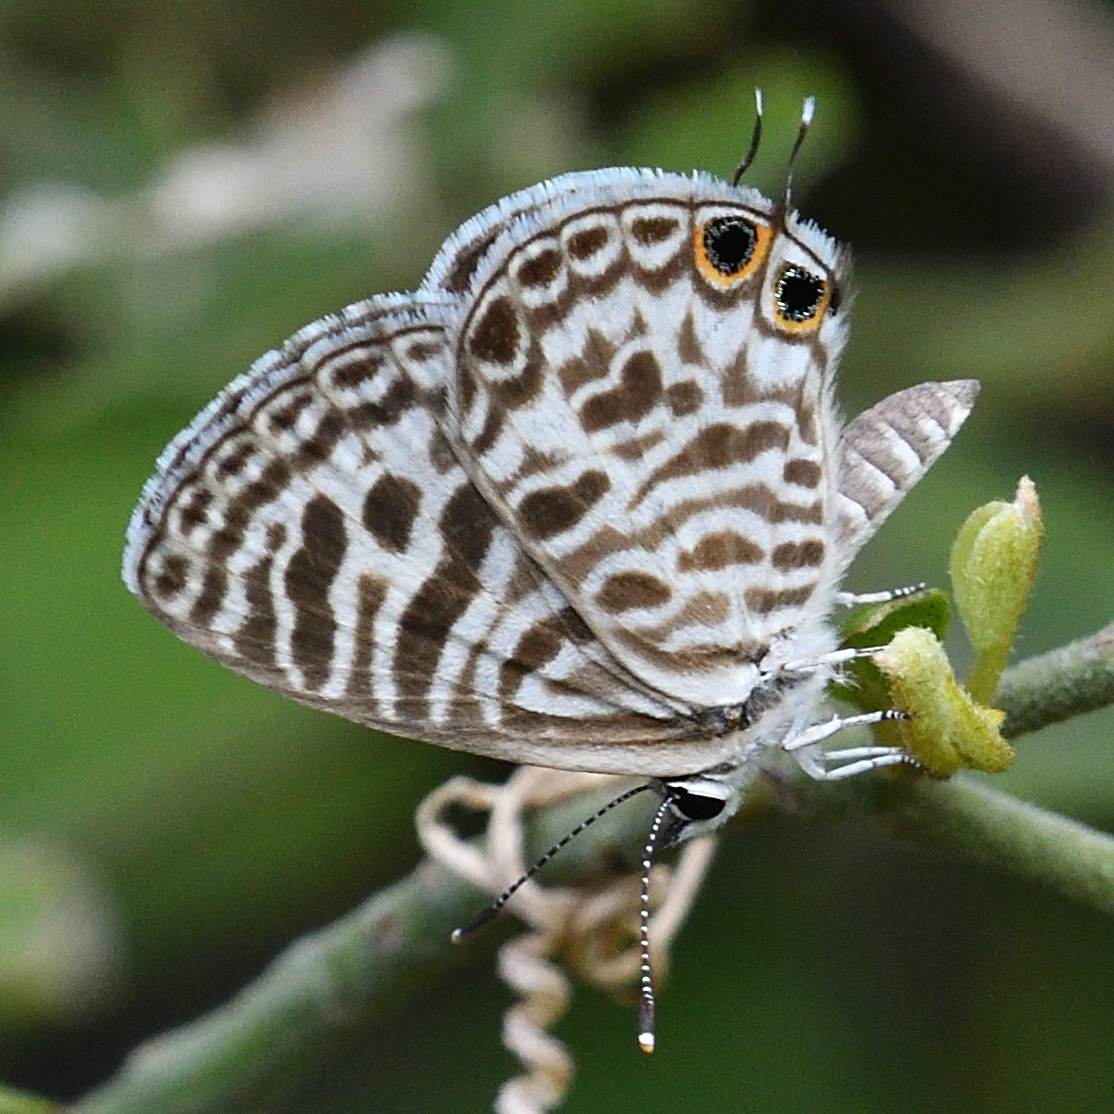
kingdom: Animalia
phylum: Arthropoda
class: Insecta
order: Lepidoptera
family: Lycaenidae
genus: Leptotes
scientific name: Leptotes plinius
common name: Zebra blue
